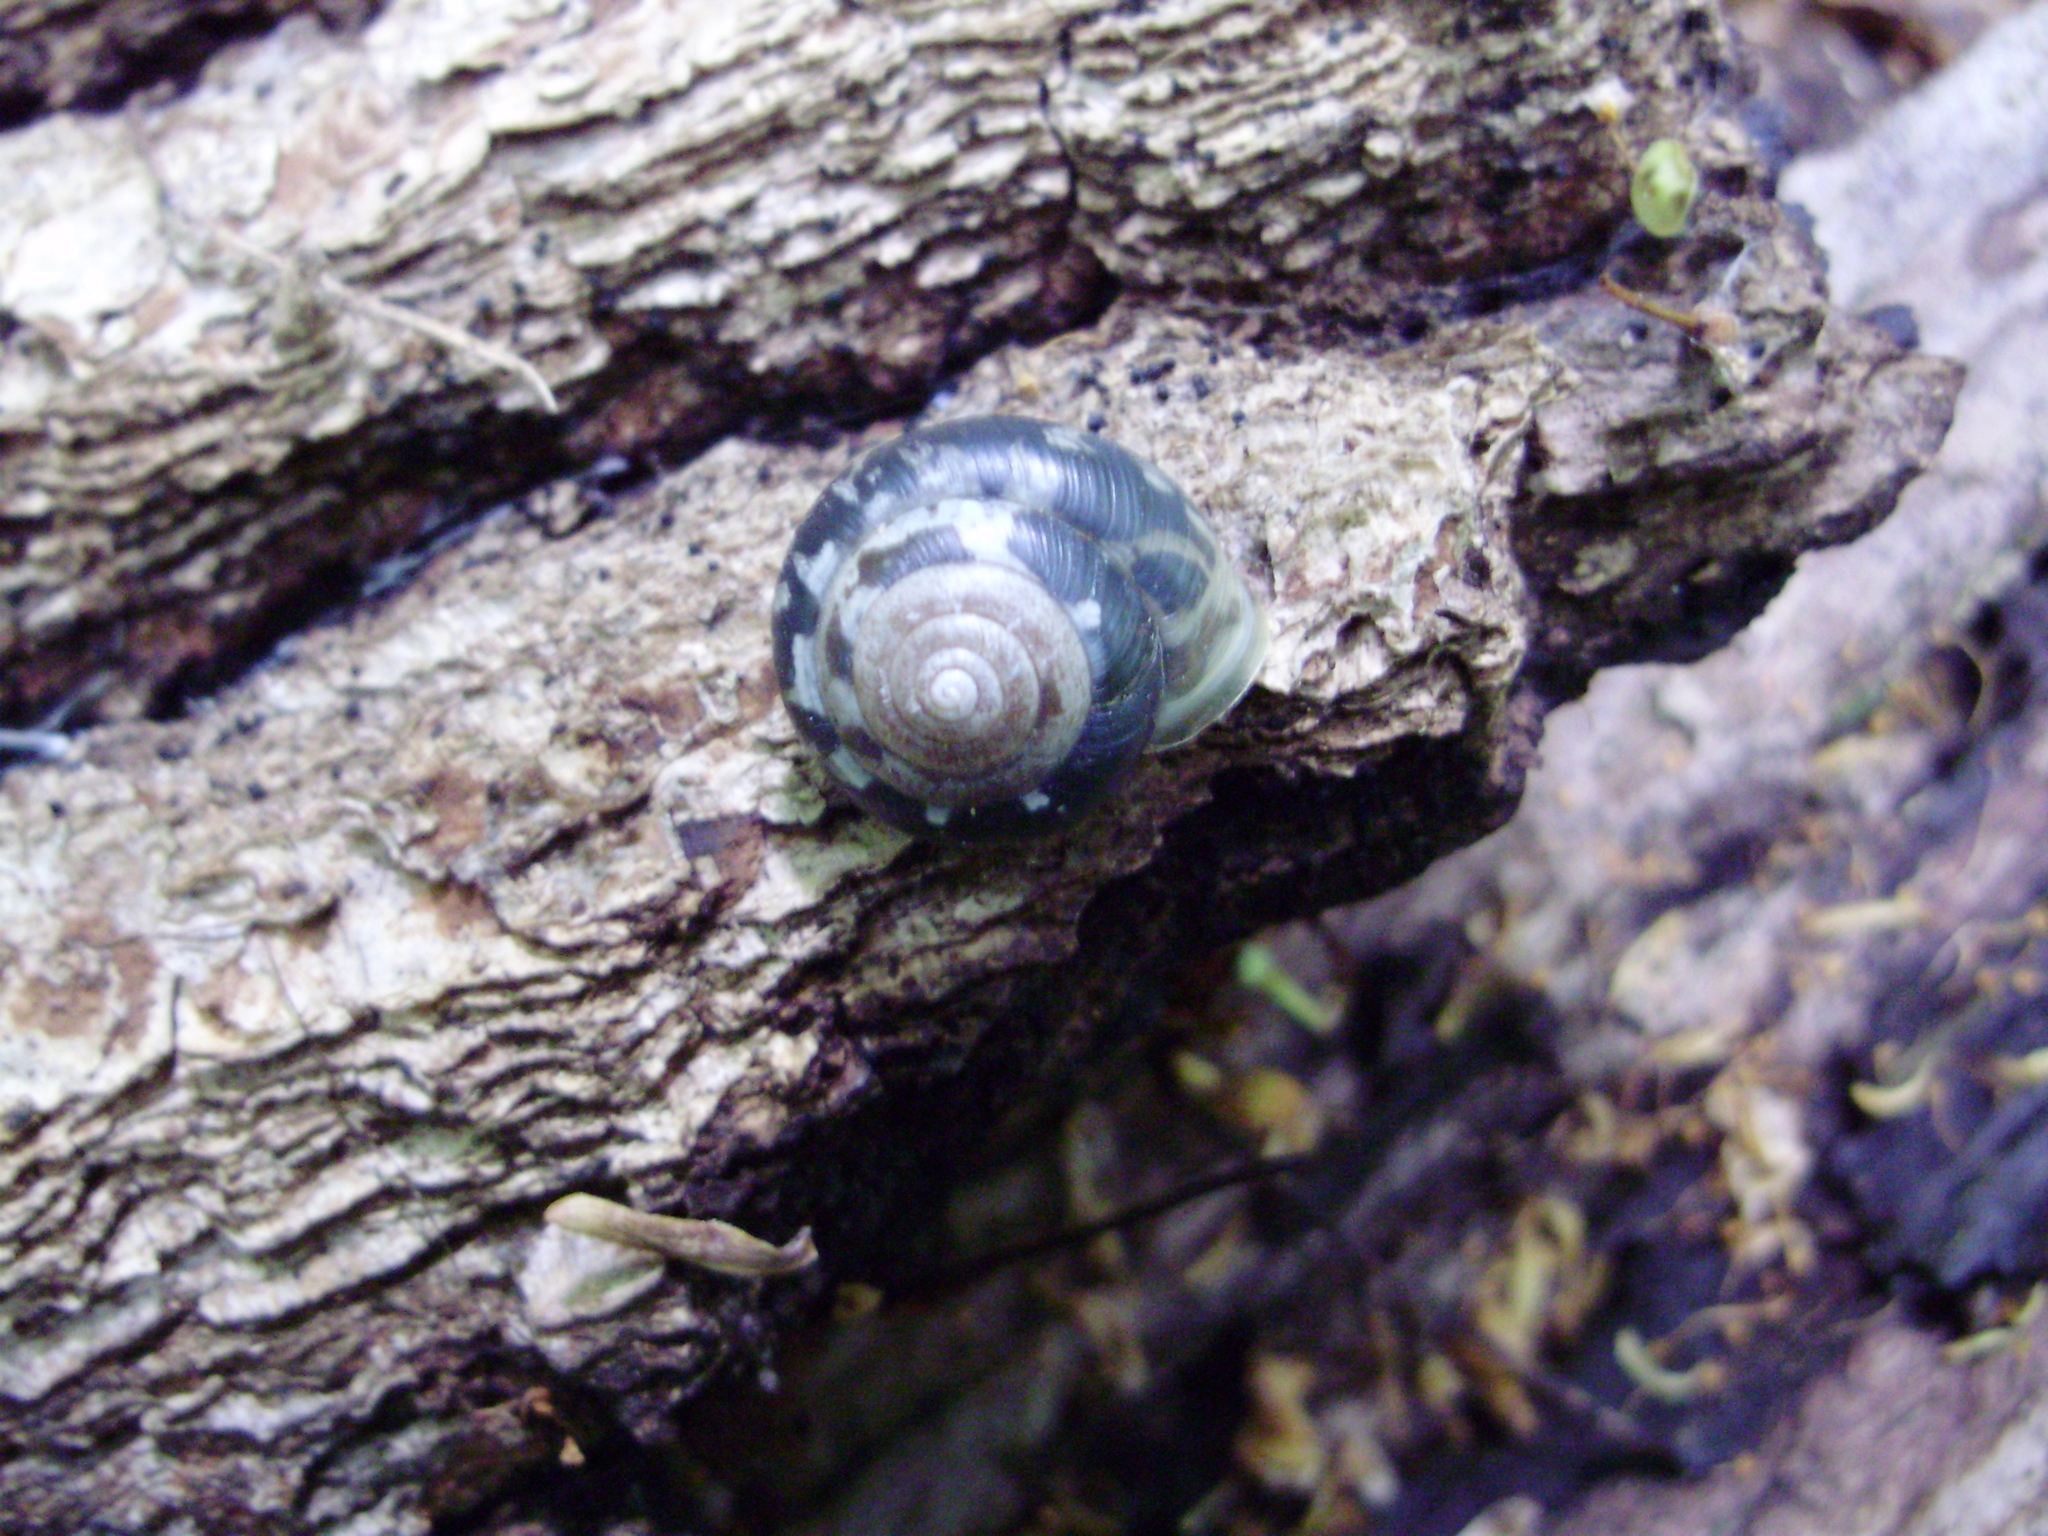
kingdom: Animalia
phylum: Mollusca
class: Gastropoda
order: Stylommatophora
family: Hygromiidae
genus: Monachoides
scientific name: Monachoides vicinus
